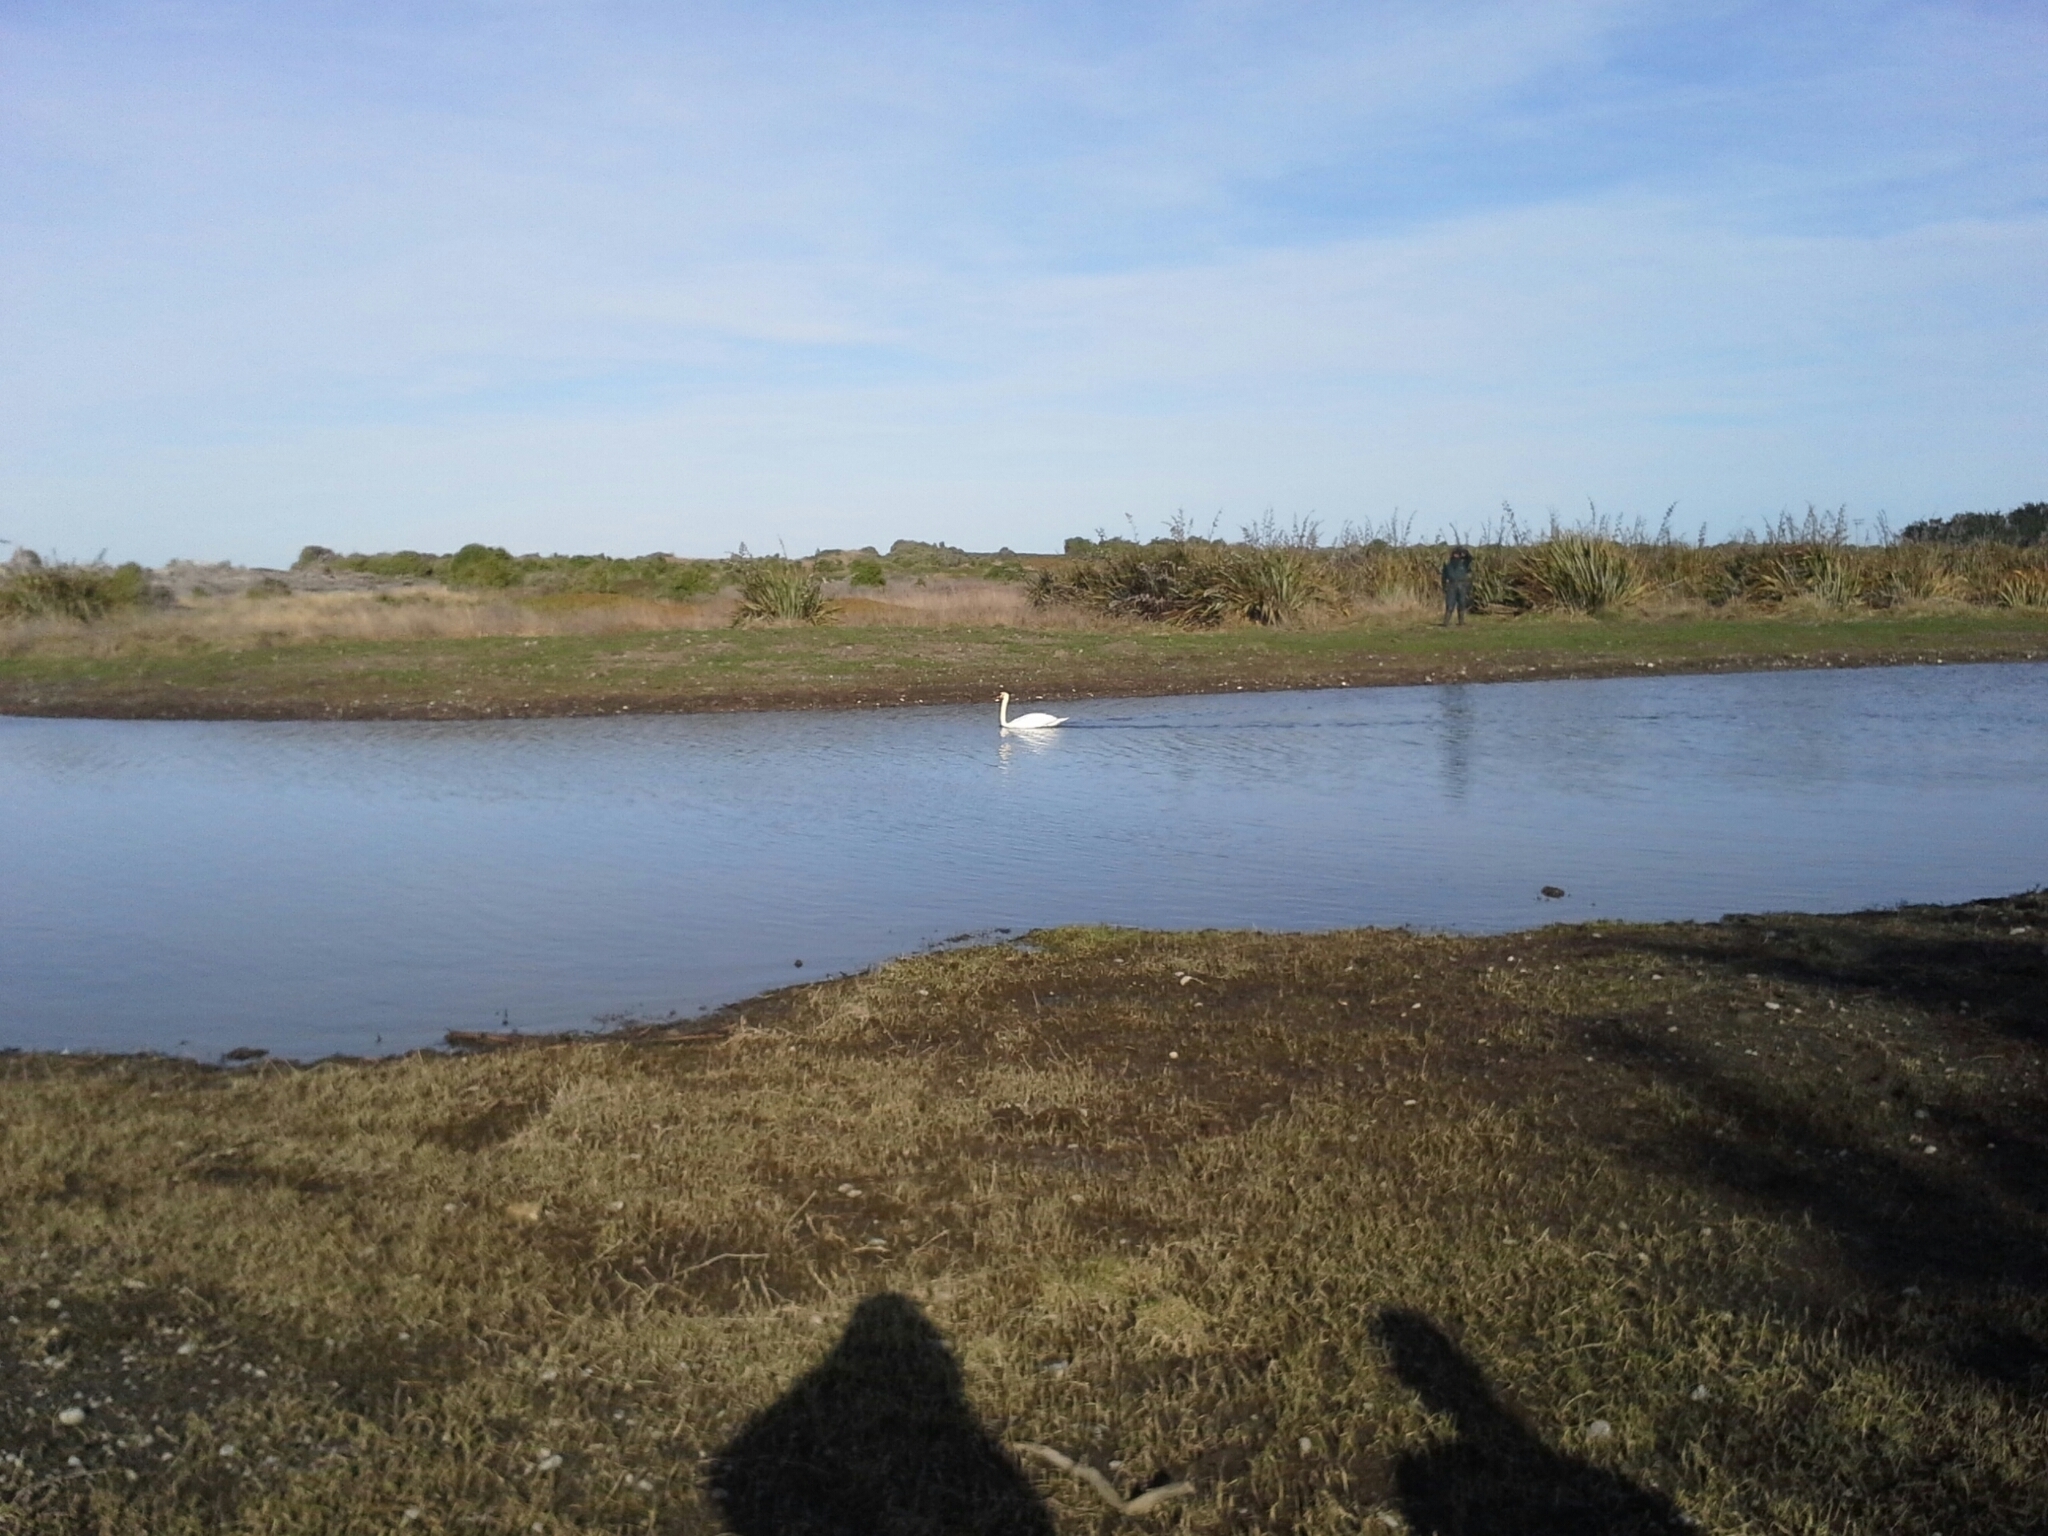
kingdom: Animalia
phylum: Chordata
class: Aves
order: Anseriformes
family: Anatidae
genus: Cygnus
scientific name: Cygnus olor
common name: Mute swan
